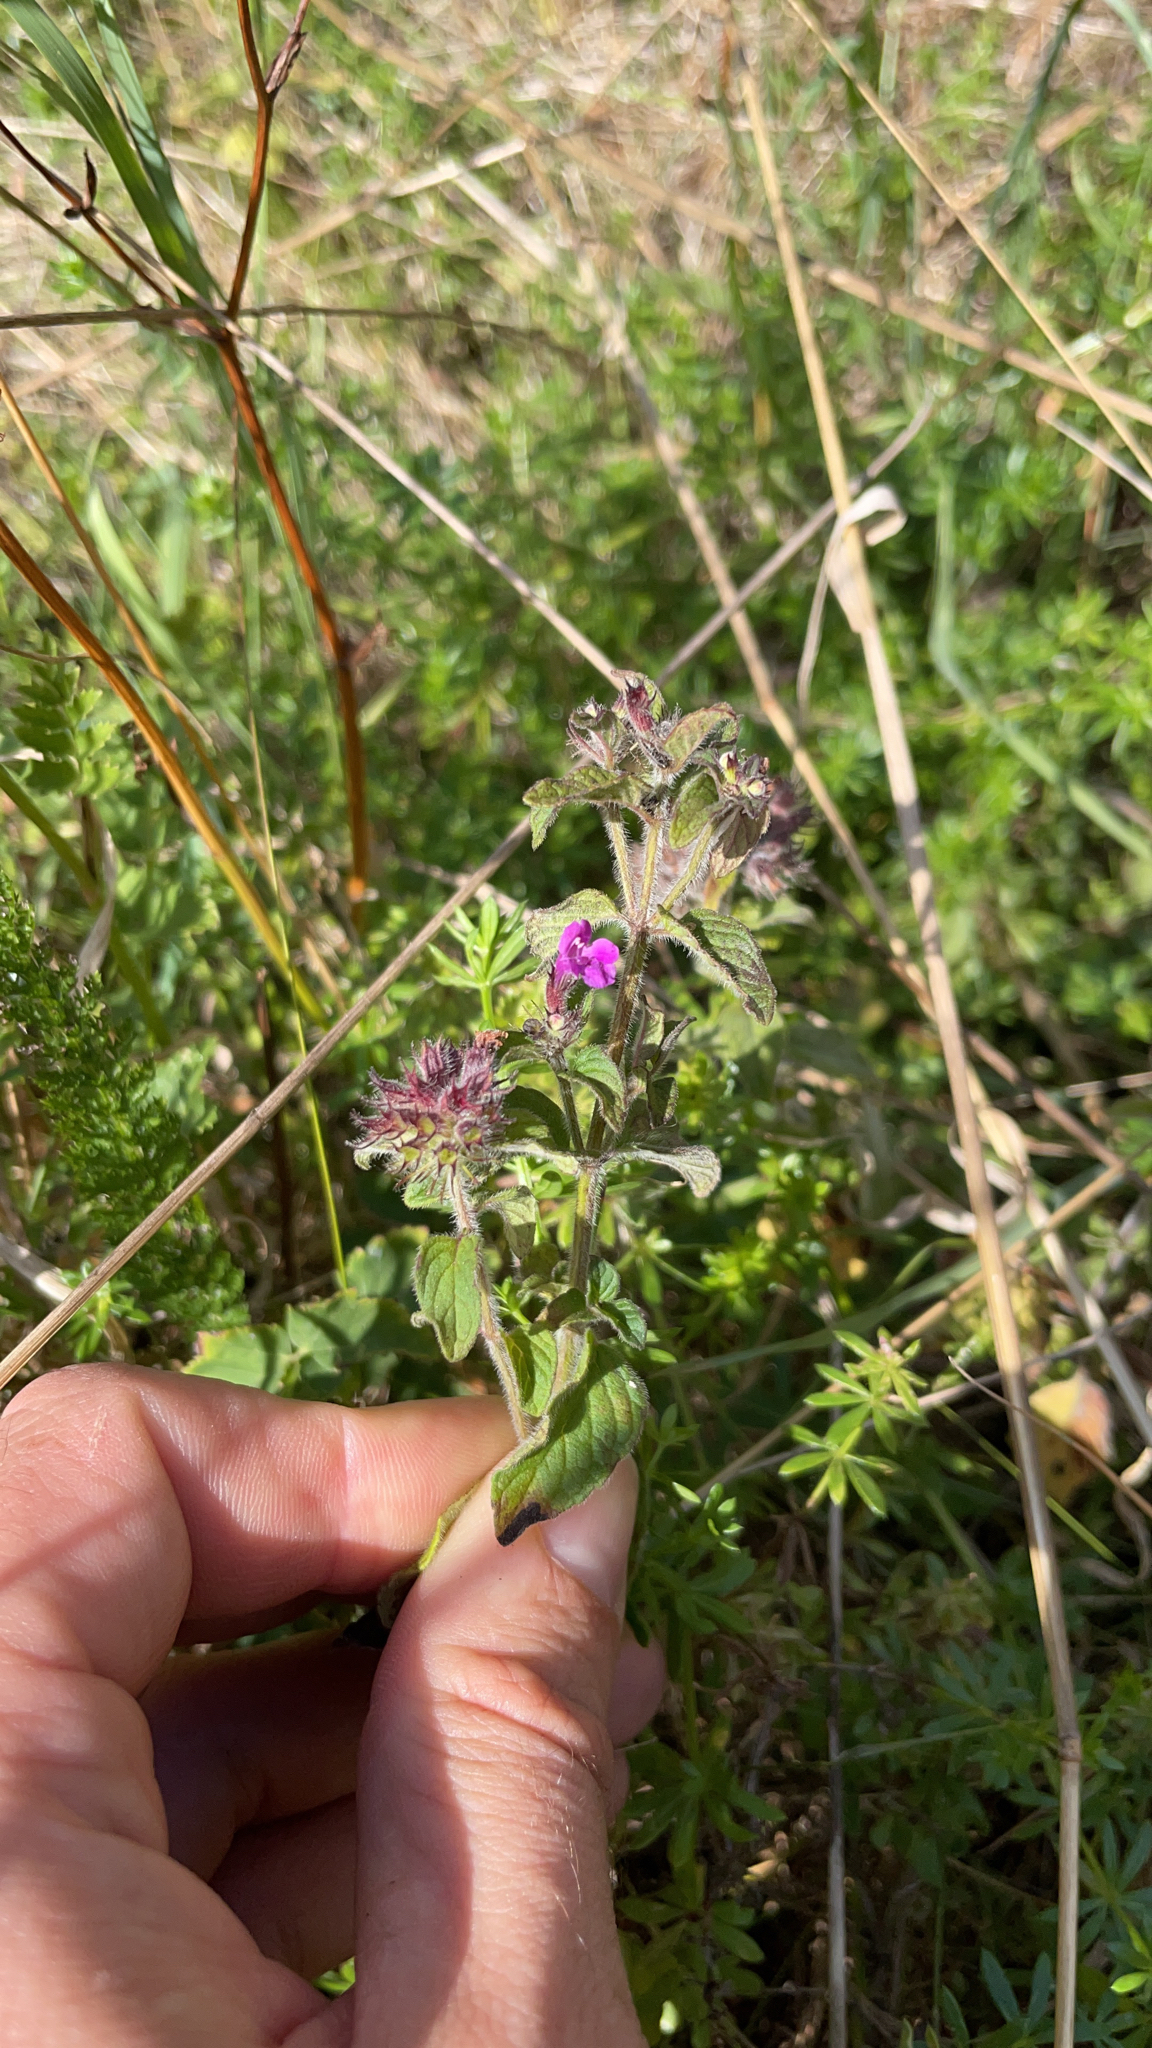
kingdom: Plantae
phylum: Tracheophyta
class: Magnoliopsida
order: Lamiales
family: Lamiaceae
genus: Clinopodium
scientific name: Clinopodium vulgare
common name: Wild basil
